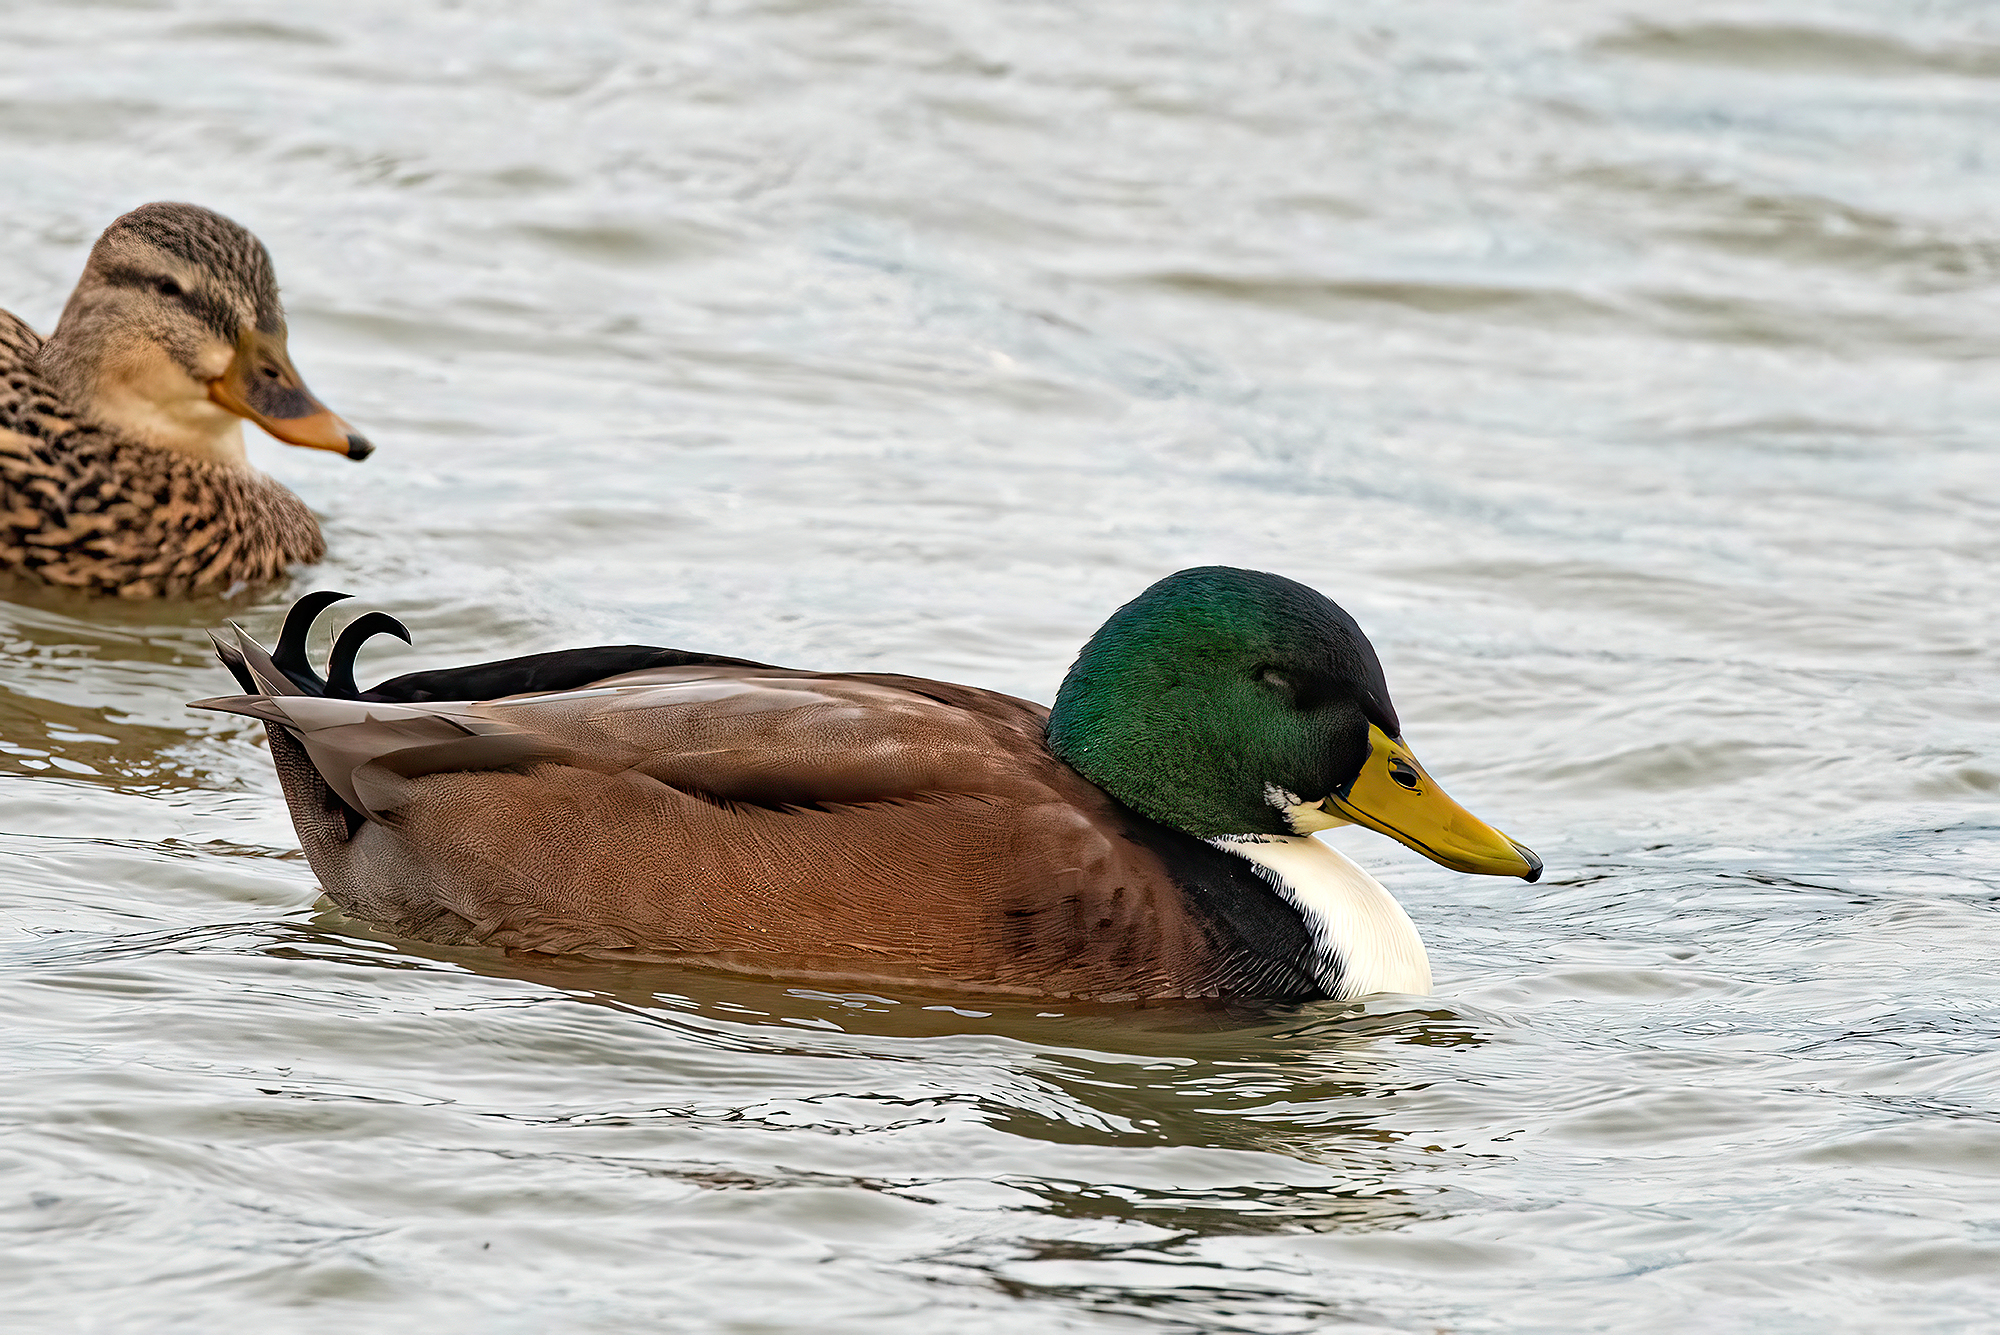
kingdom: Animalia
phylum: Chordata
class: Aves
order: Anseriformes
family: Anatidae
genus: Anas
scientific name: Anas platyrhynchos
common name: Mallard
